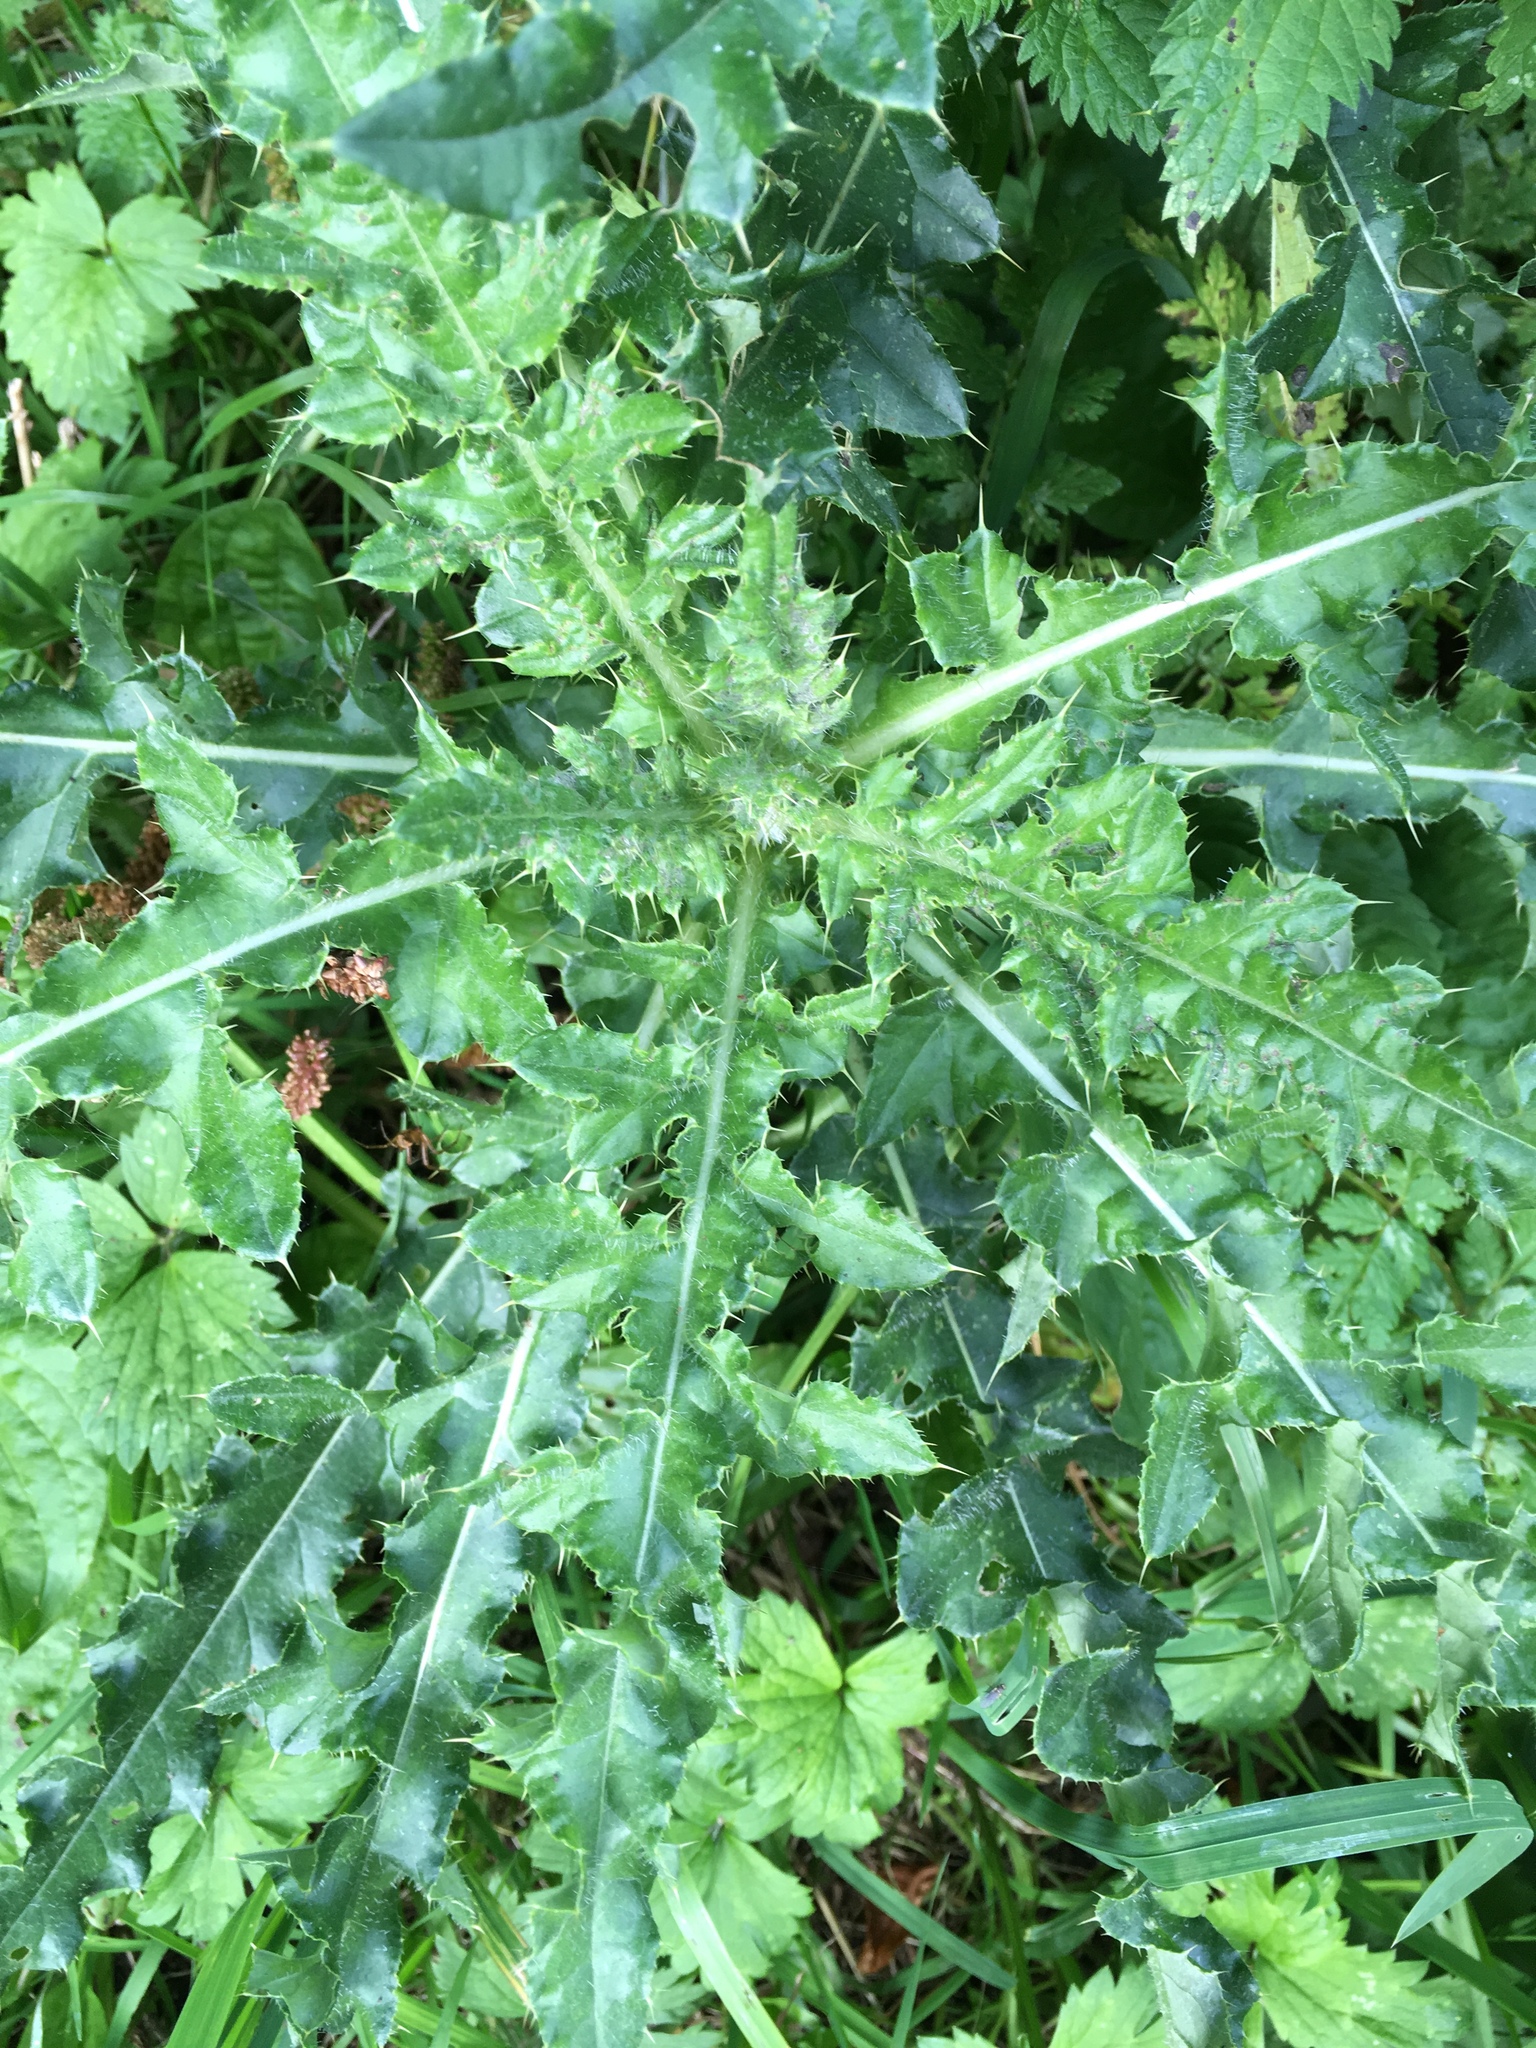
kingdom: Plantae
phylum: Tracheophyta
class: Magnoliopsida
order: Asterales
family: Asteraceae
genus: Cirsium
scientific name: Cirsium arvense
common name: Creeping thistle
